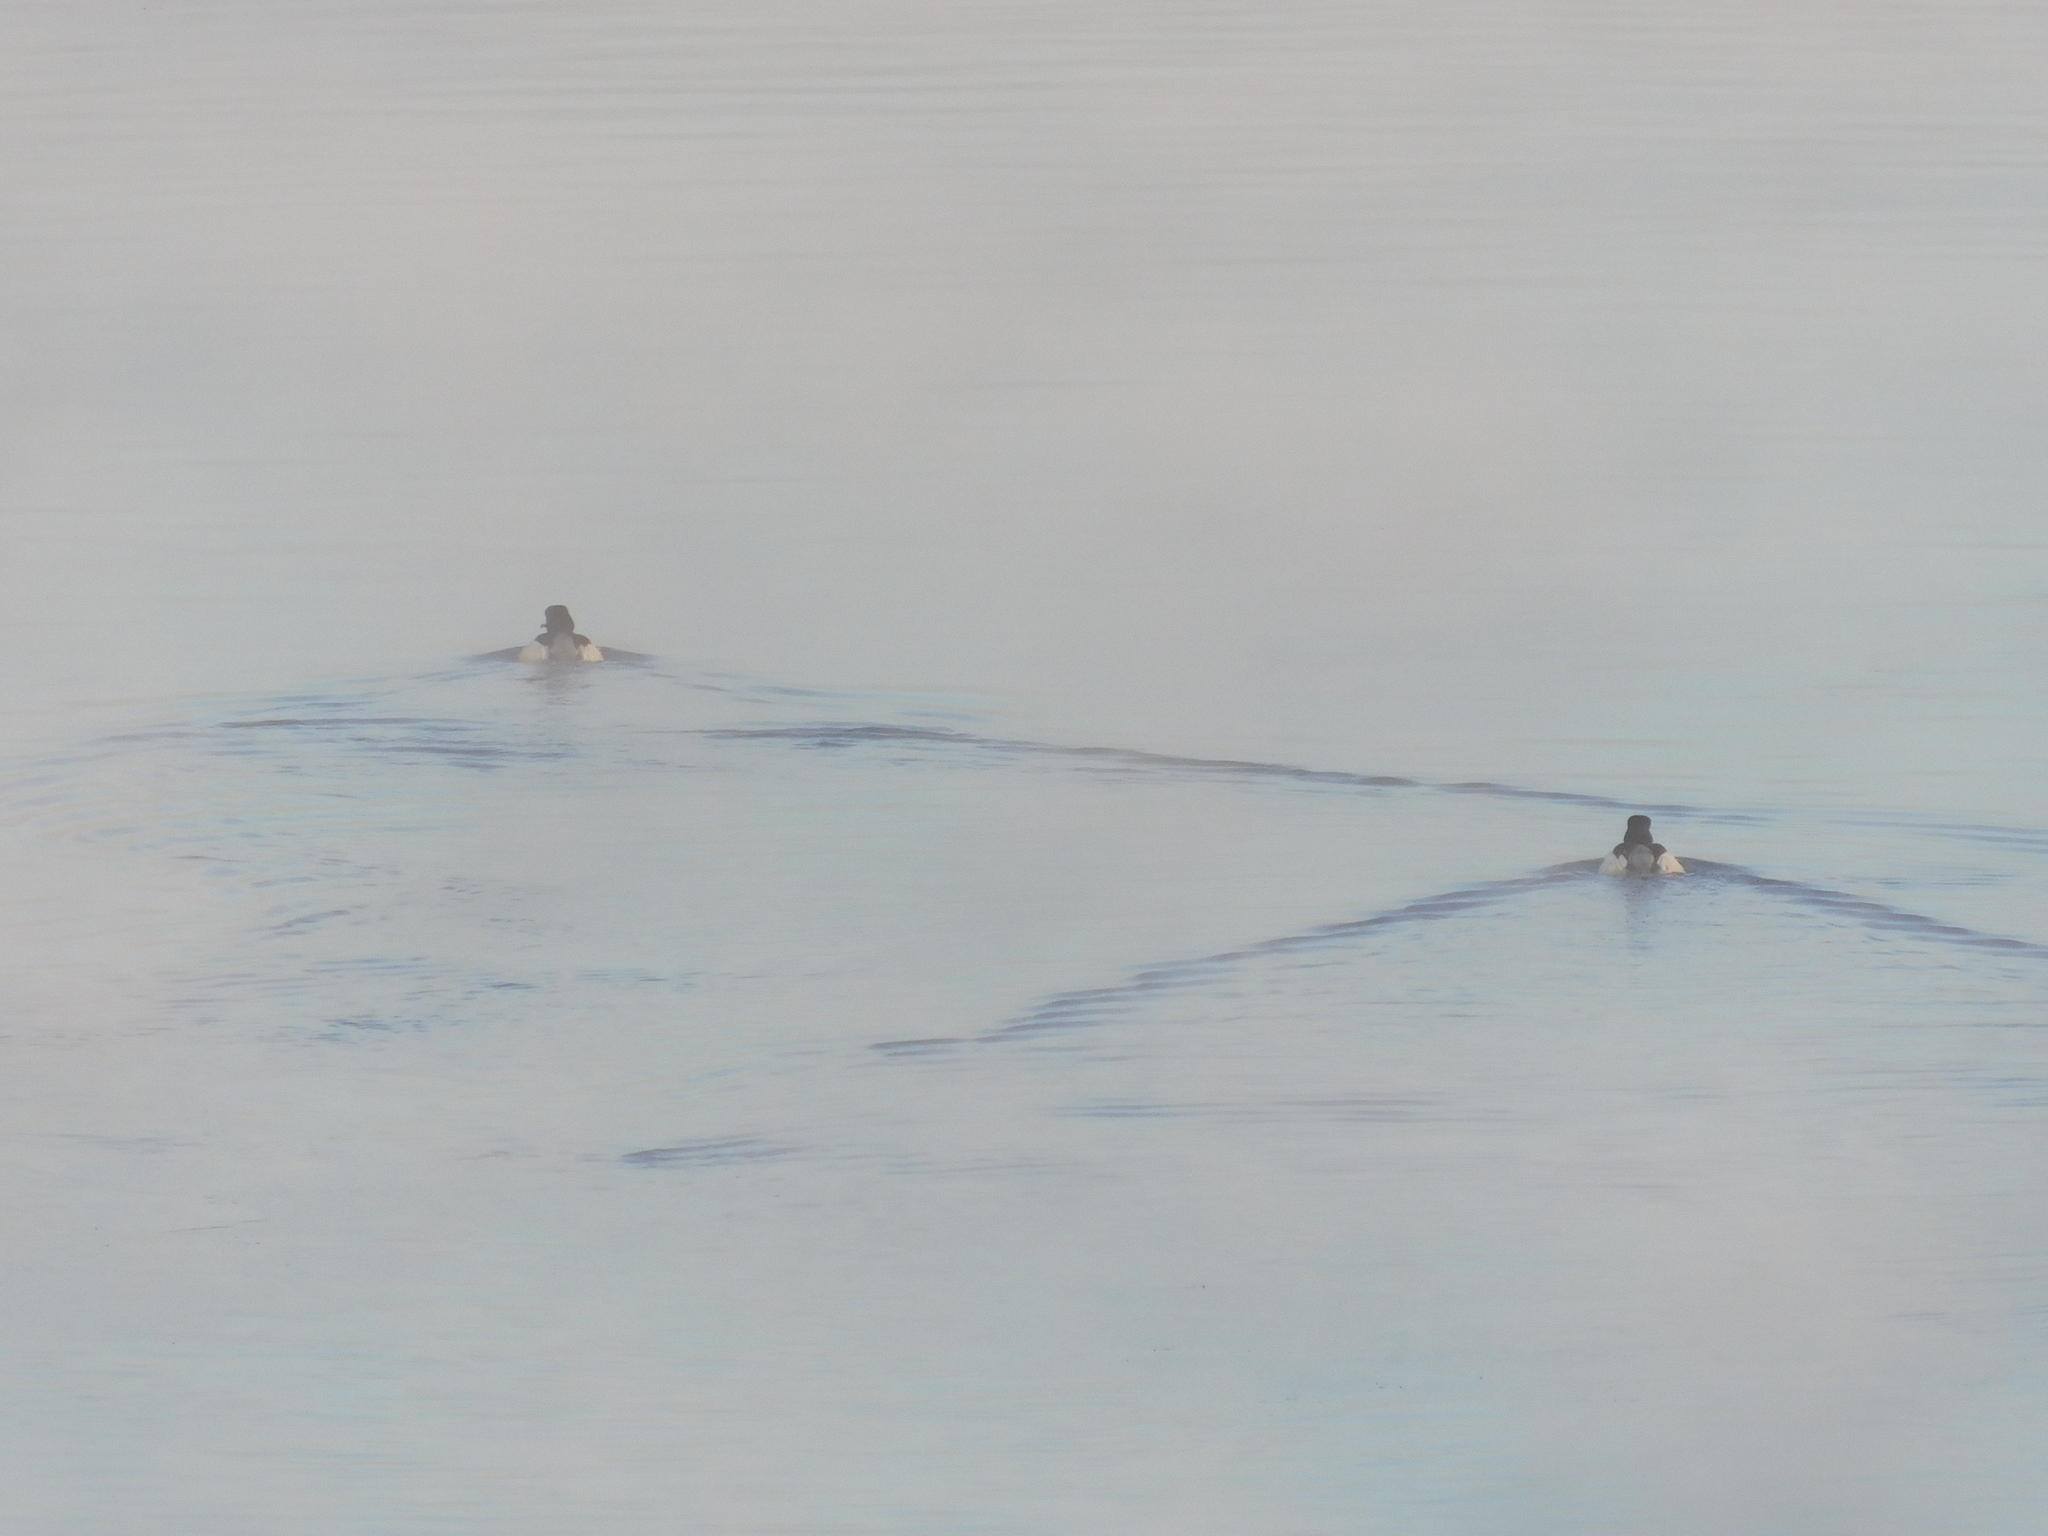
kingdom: Animalia
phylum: Chordata
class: Aves
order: Anseriformes
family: Anatidae
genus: Mergus
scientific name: Mergus merganser
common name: Common merganser
